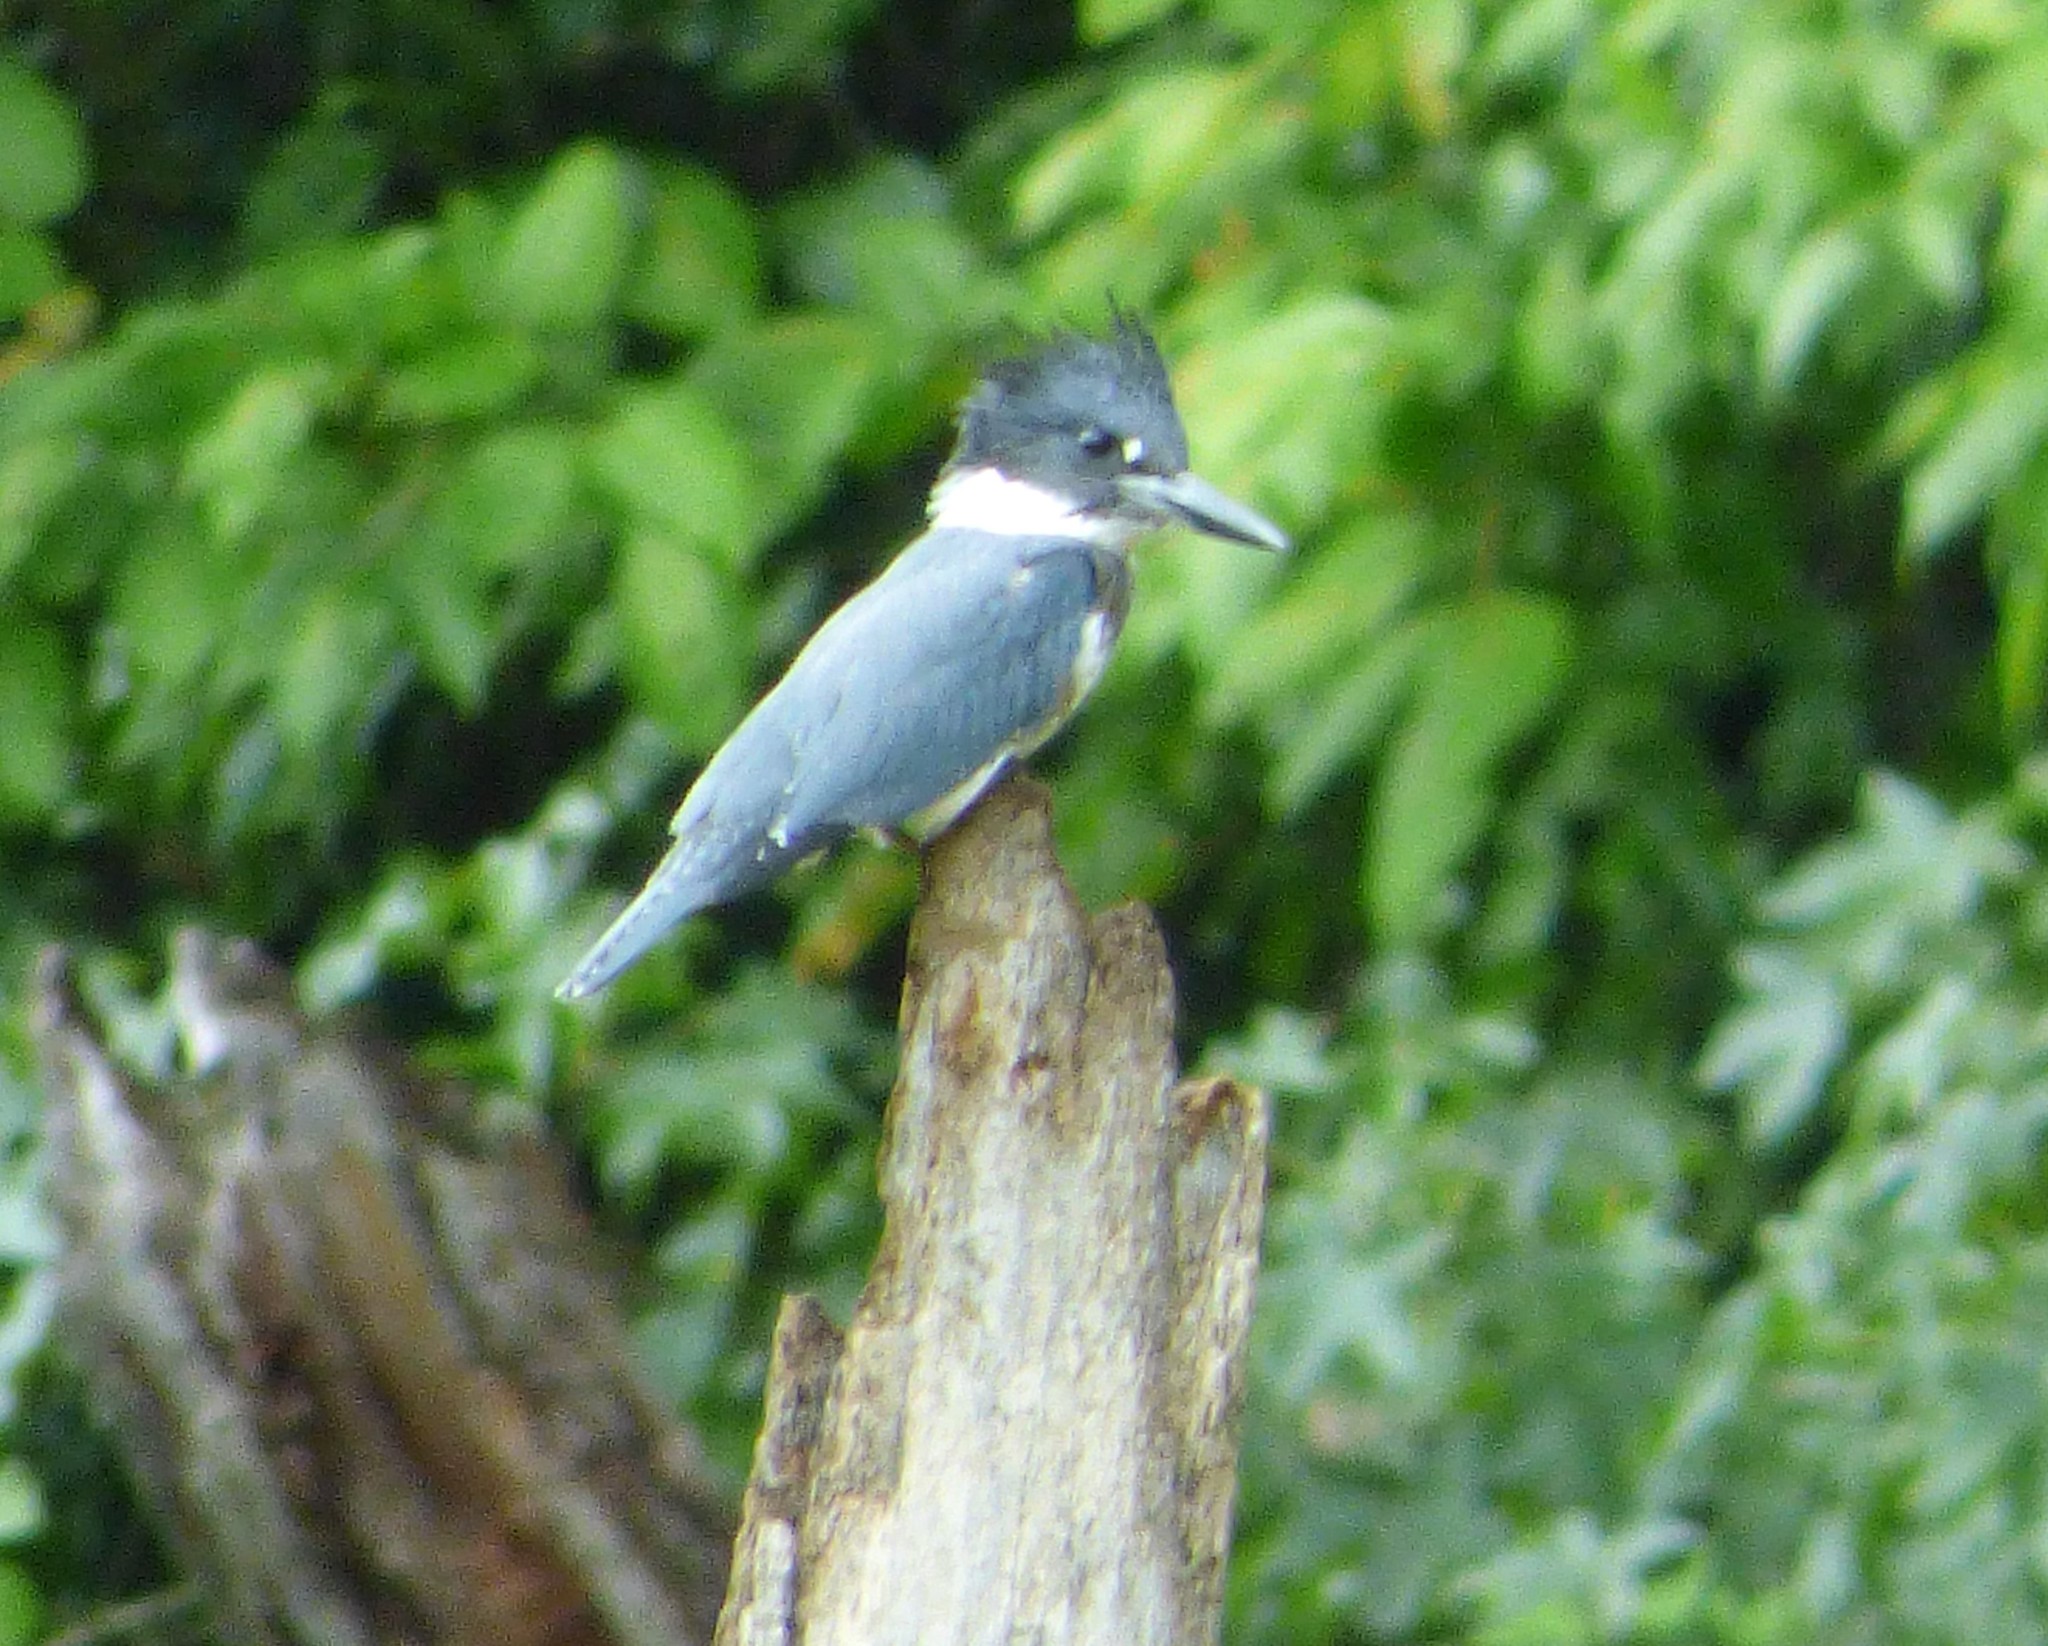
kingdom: Animalia
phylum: Chordata
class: Aves
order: Coraciiformes
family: Alcedinidae
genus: Megaceryle
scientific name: Megaceryle alcyon
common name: Belted kingfisher
